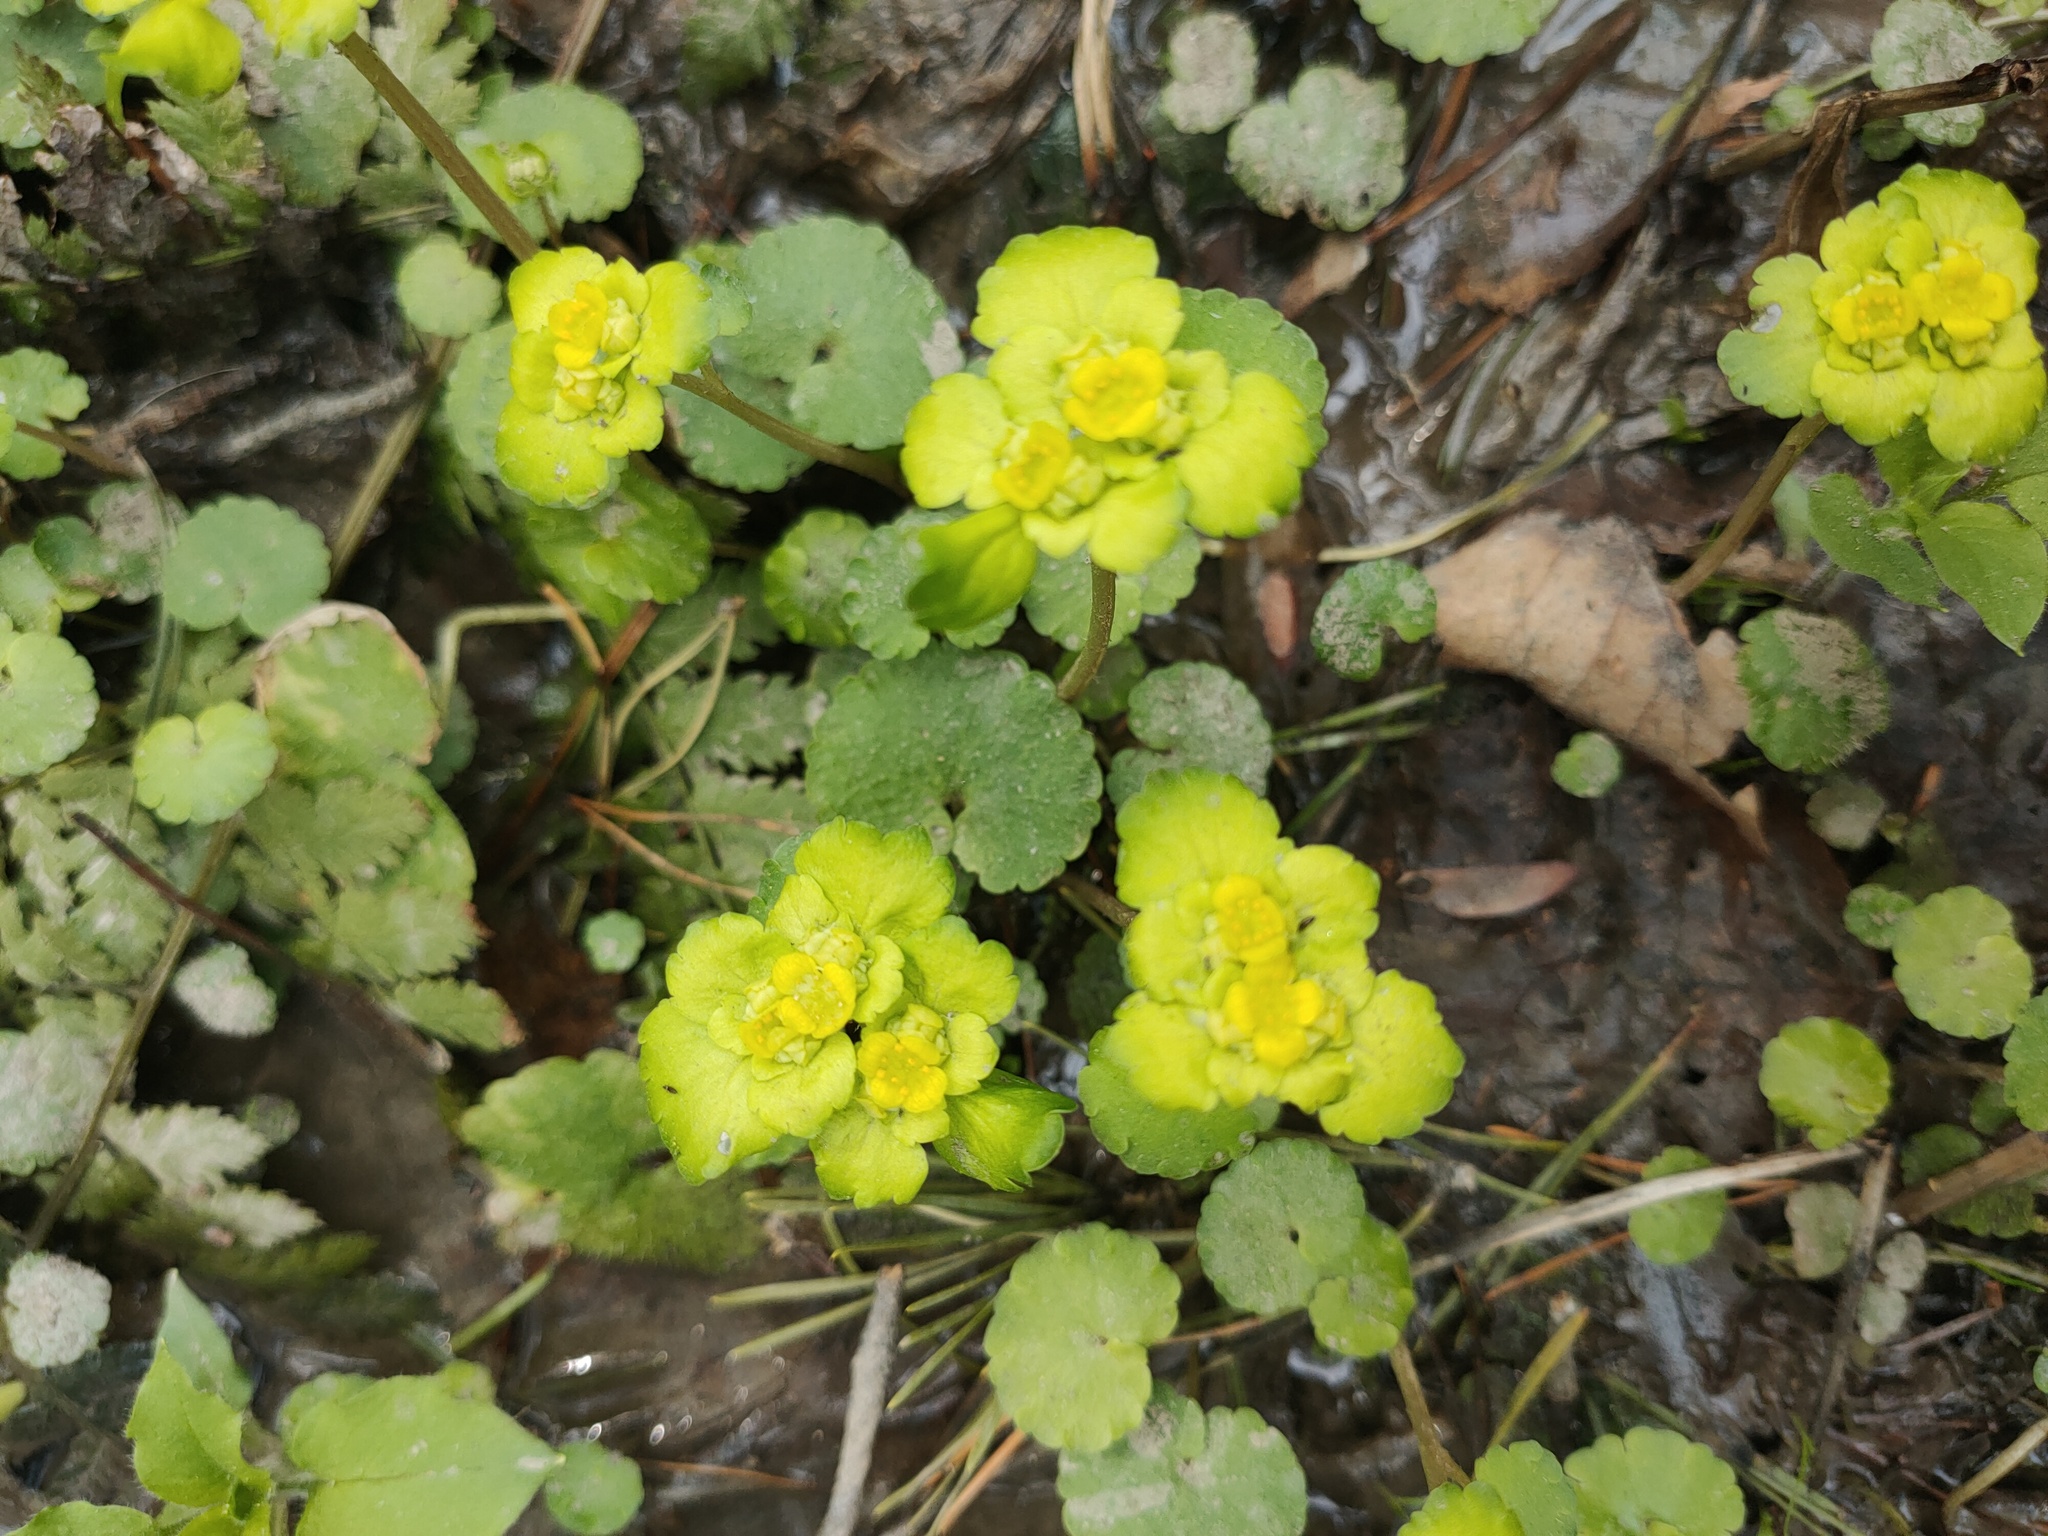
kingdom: Plantae
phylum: Tracheophyta
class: Magnoliopsida
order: Saxifragales
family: Saxifragaceae
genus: Chrysosplenium
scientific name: Chrysosplenium alternifolium
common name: Alternate-leaved golden-saxifrage
